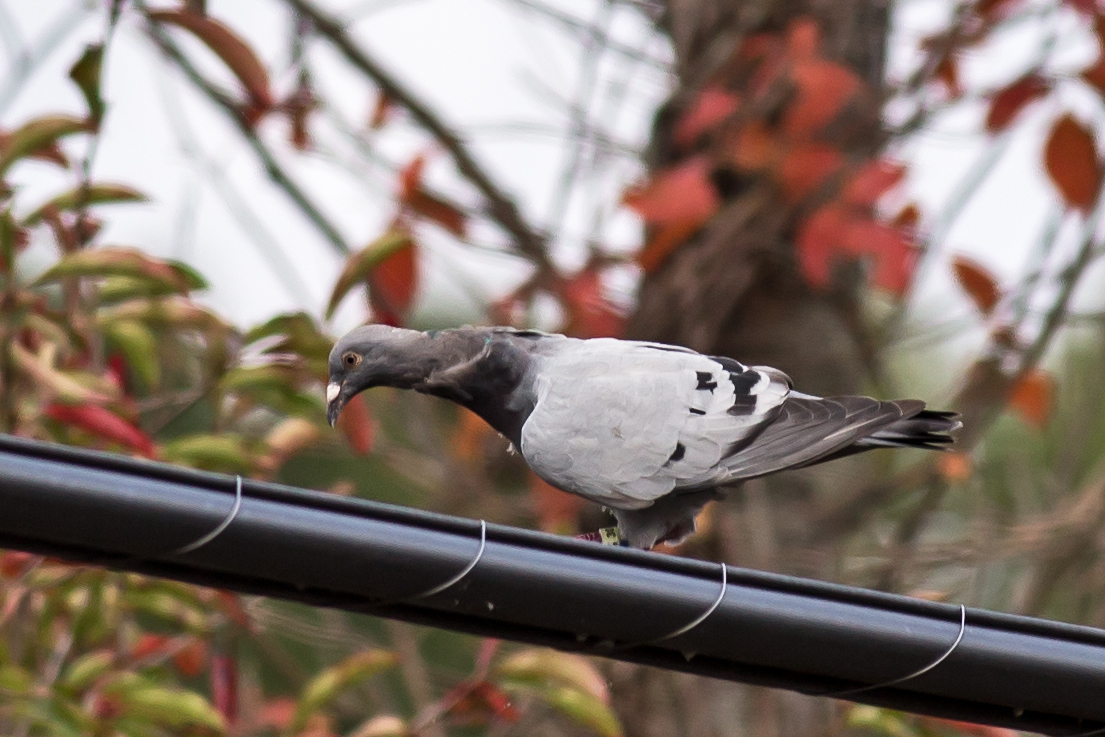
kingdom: Animalia
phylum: Chordata
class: Aves
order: Columbiformes
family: Columbidae
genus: Columba
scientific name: Columba livia
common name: Rock pigeon
